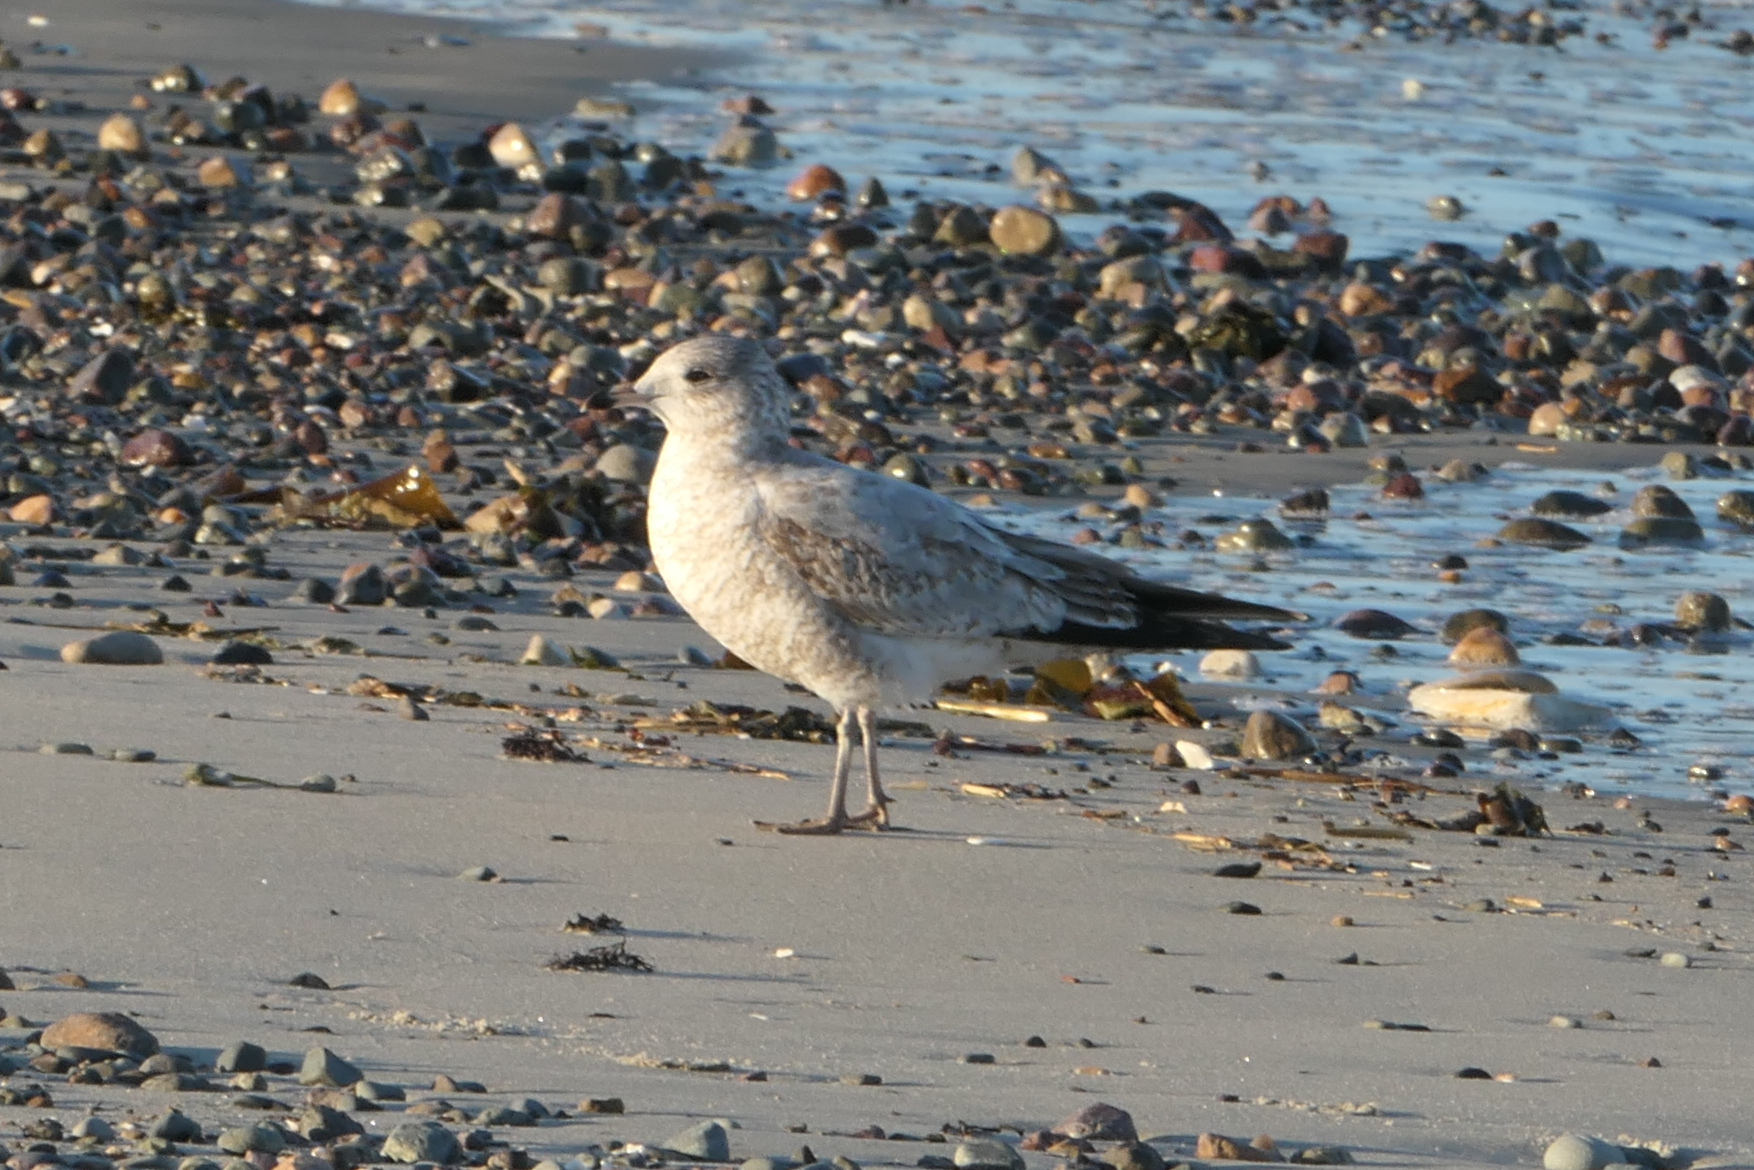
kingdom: Animalia
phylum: Chordata
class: Aves
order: Charadriiformes
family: Laridae
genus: Larus
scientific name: Larus delawarensis
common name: Ring-billed gull
